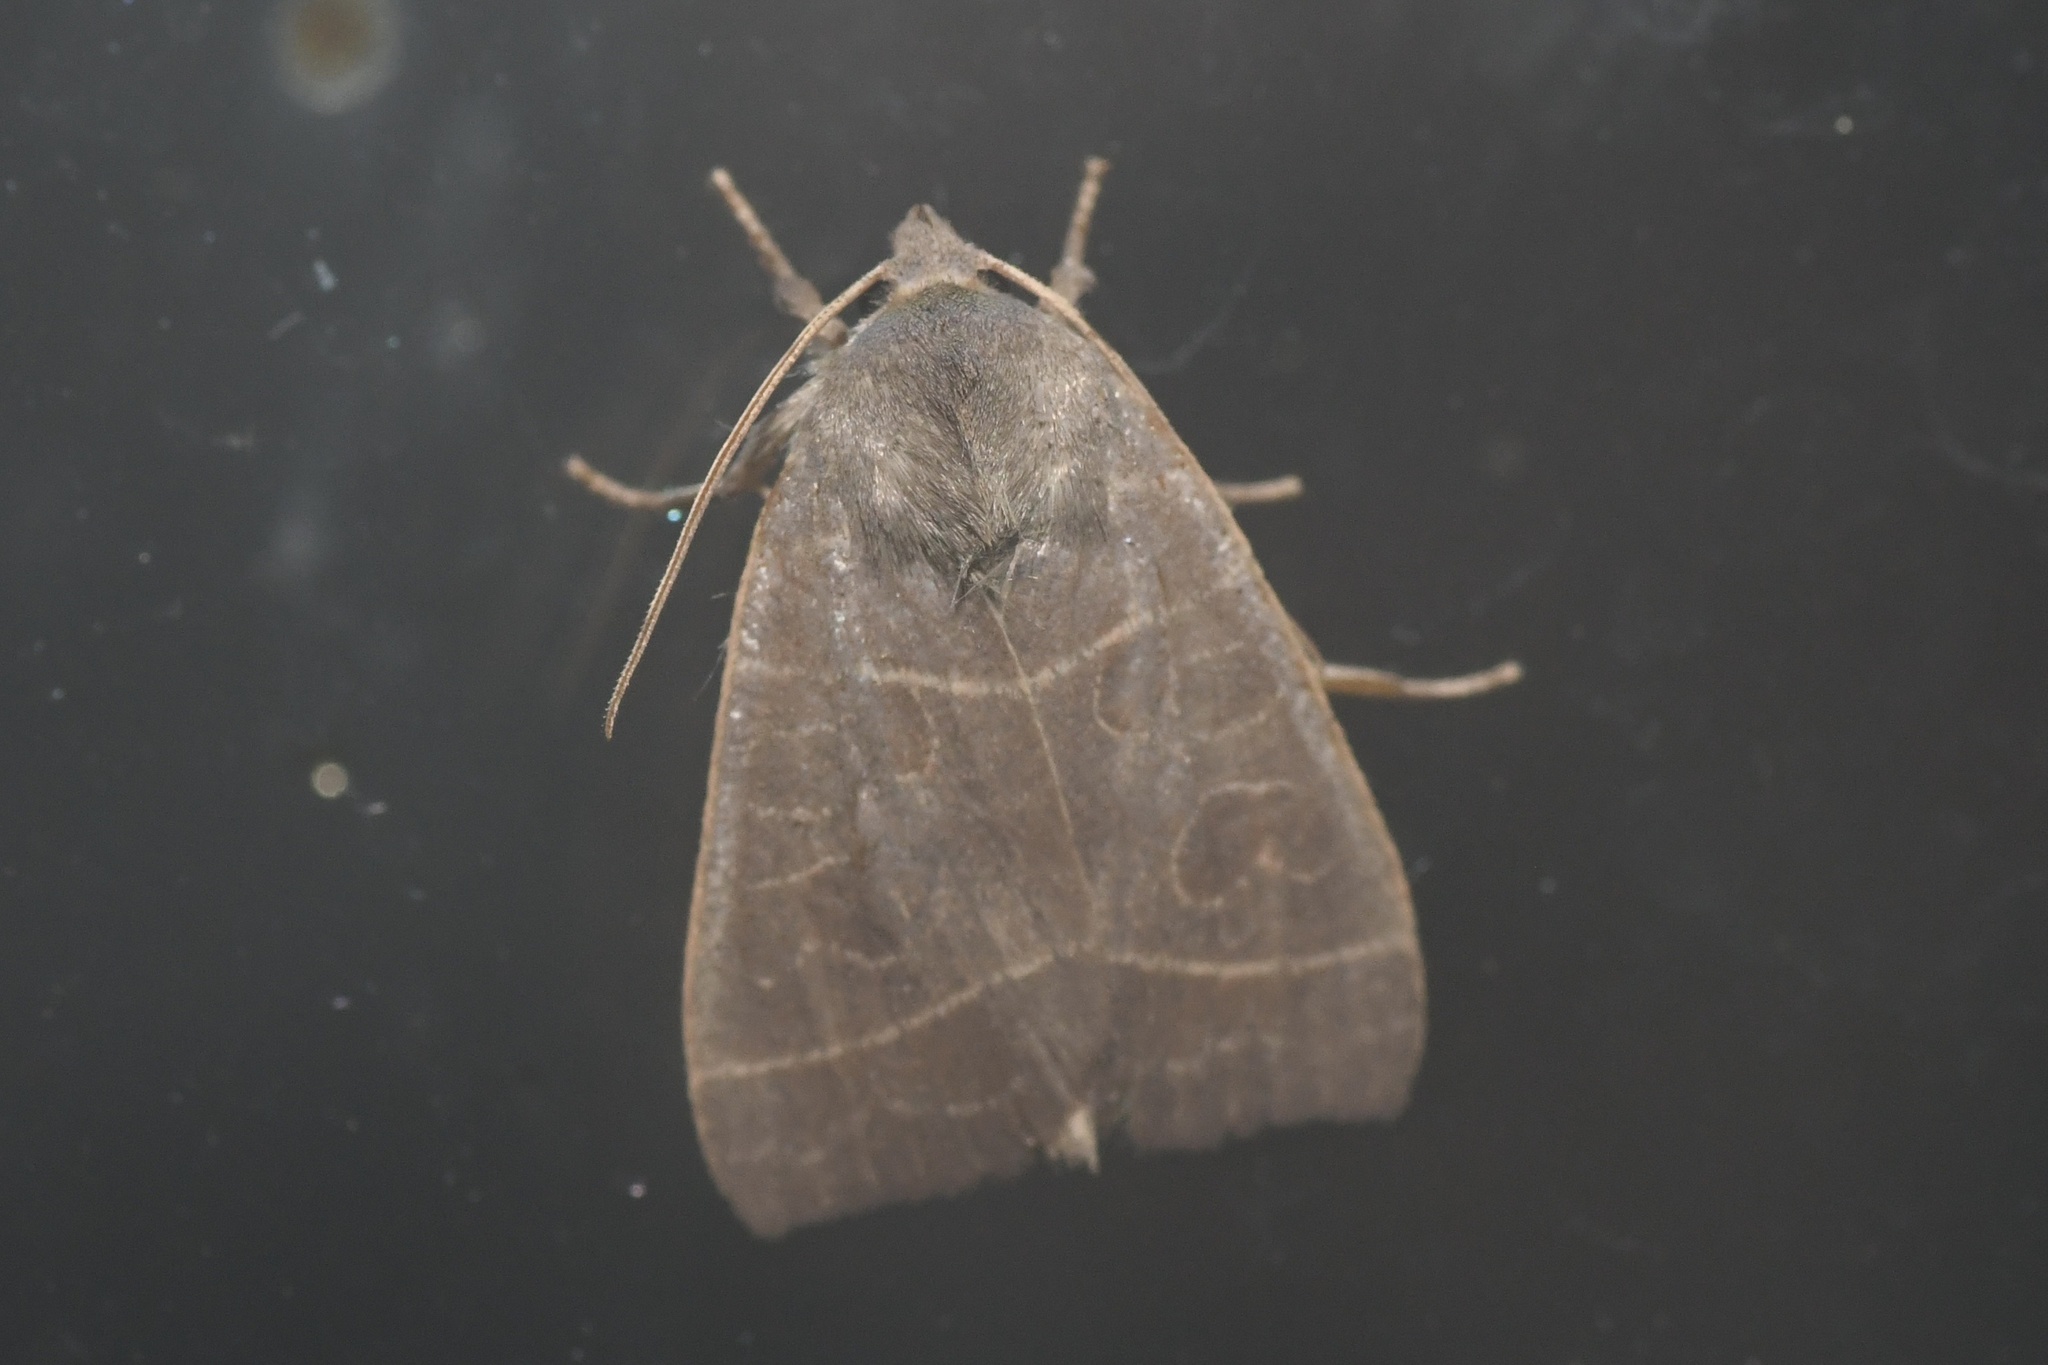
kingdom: Animalia
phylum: Arthropoda
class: Insecta
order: Lepidoptera
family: Noctuidae
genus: Ipimorpha
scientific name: Ipimorpha pleonectusa
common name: Even-lined sallow
